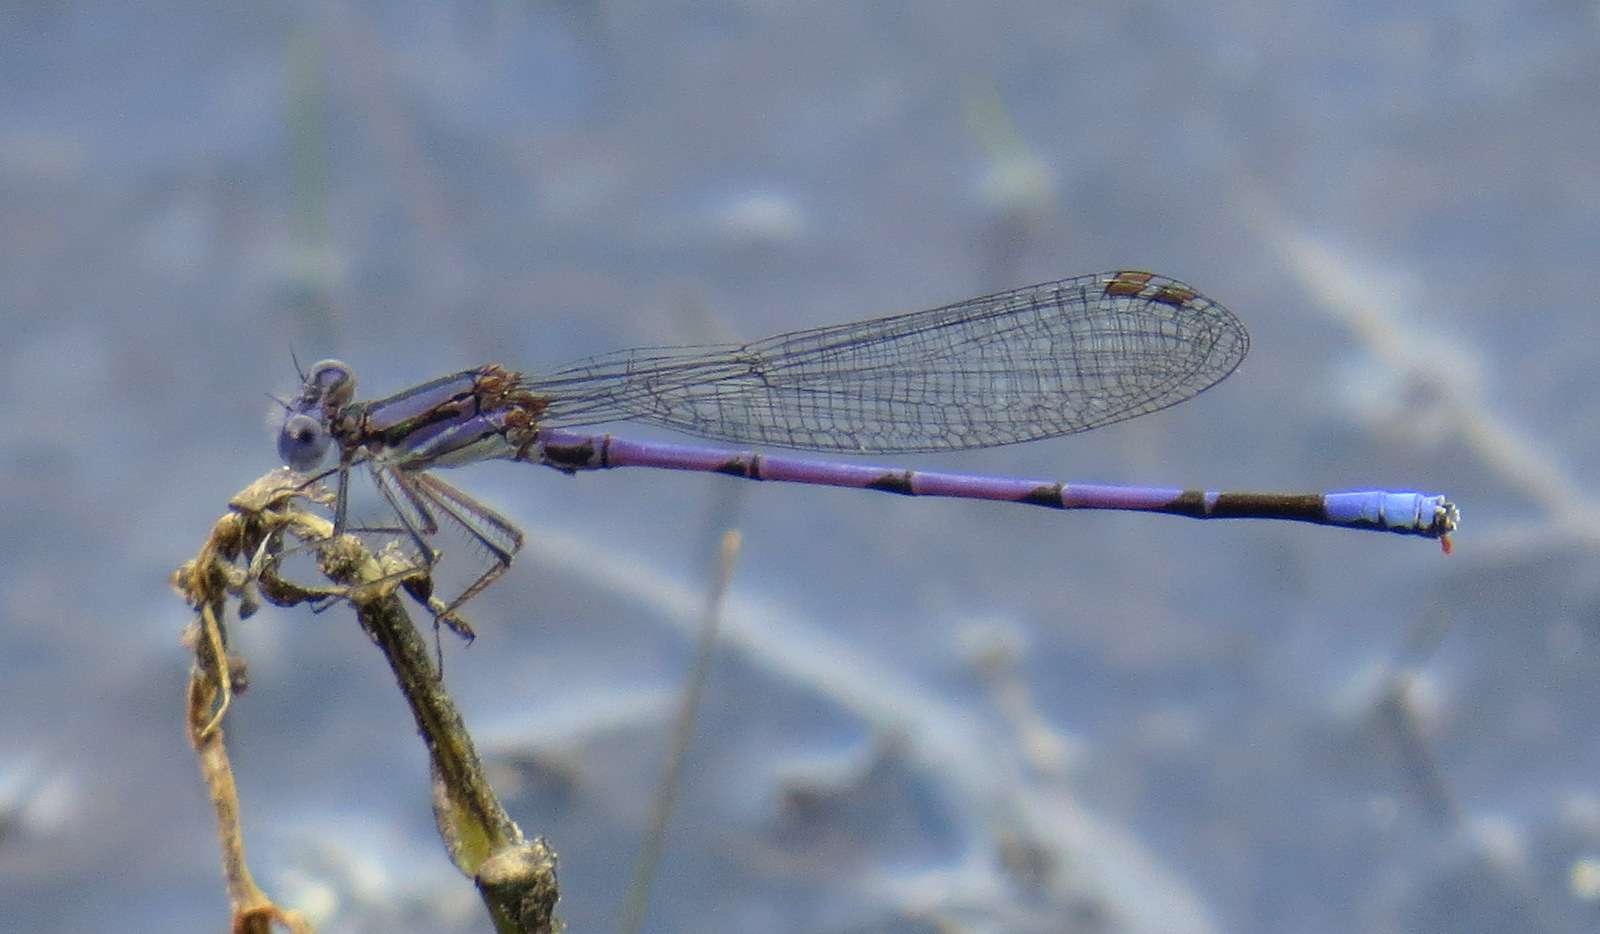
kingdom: Animalia
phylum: Arthropoda
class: Insecta
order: Odonata
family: Coenagrionidae
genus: Argia
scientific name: Argia fumipennis
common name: Variable dancer
